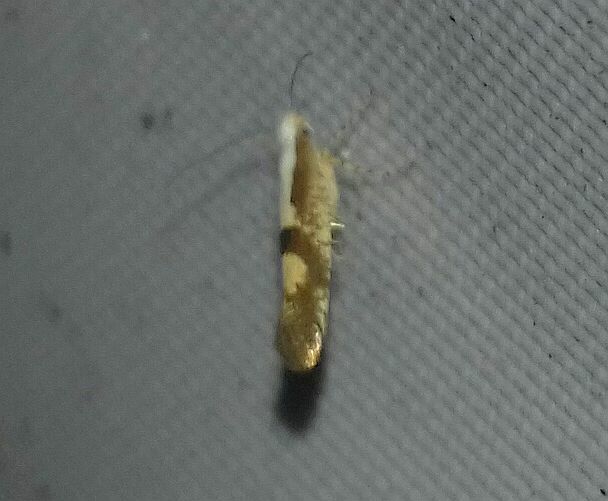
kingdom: Animalia
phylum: Arthropoda
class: Insecta
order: Lepidoptera
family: Argyresthiidae
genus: Argyresthia
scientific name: Argyresthia pruniella
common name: Cherry fruit moth
